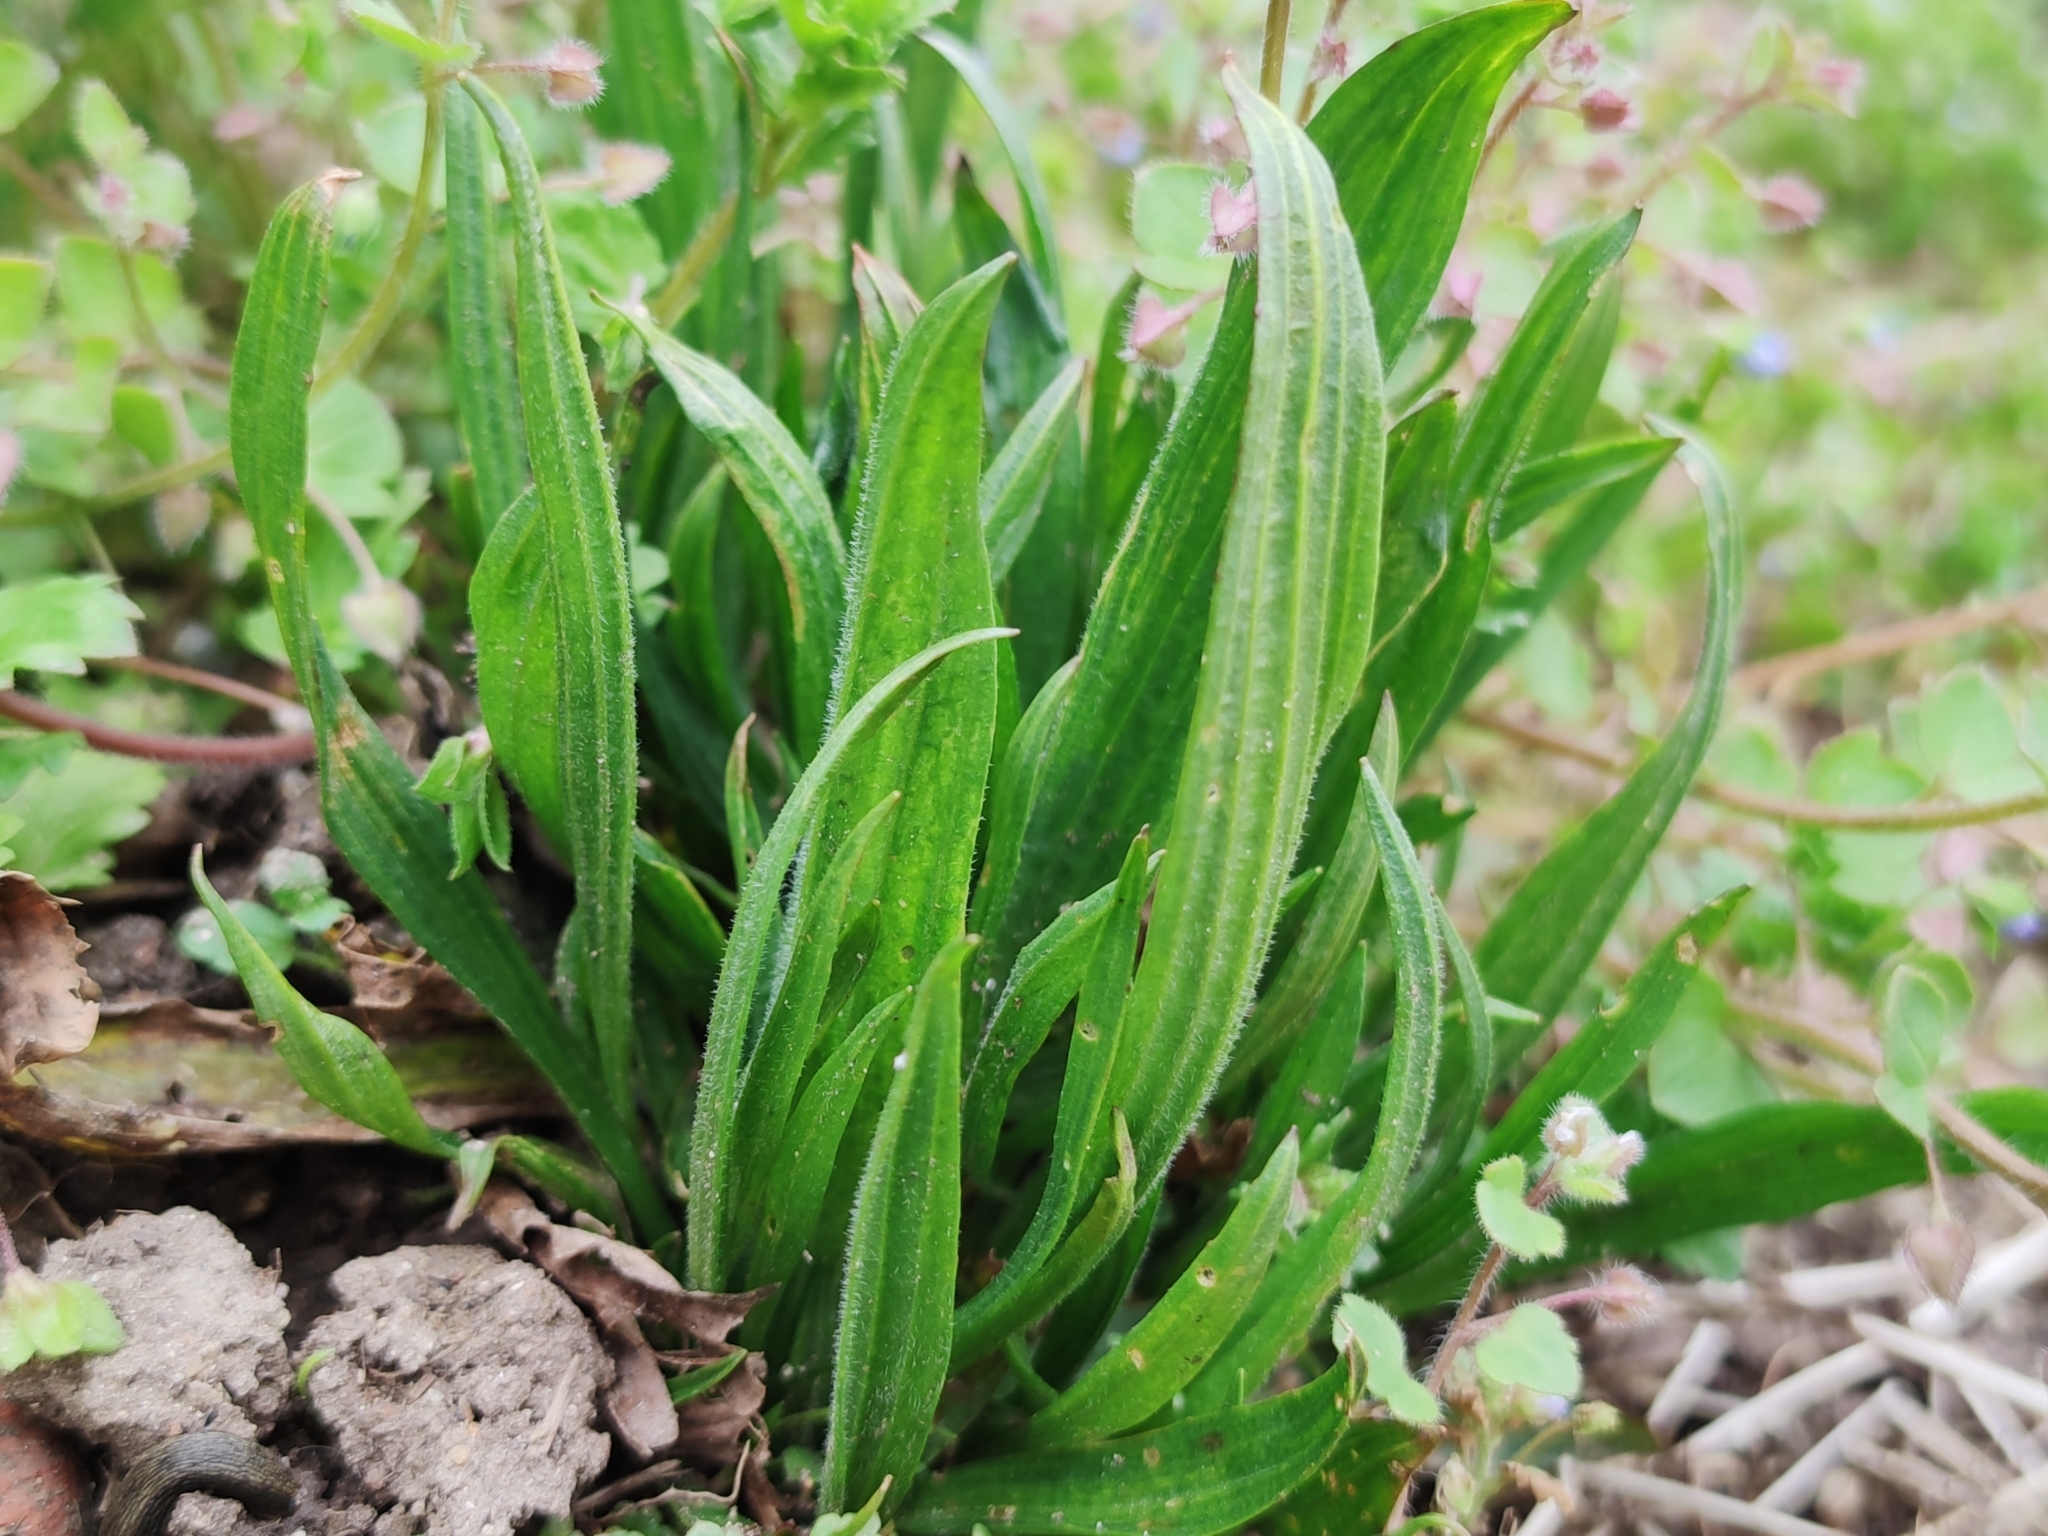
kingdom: Plantae
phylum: Tracheophyta
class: Magnoliopsida
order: Lamiales
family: Plantaginaceae
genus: Plantago
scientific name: Plantago lanceolata
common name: Ribwort plantain
